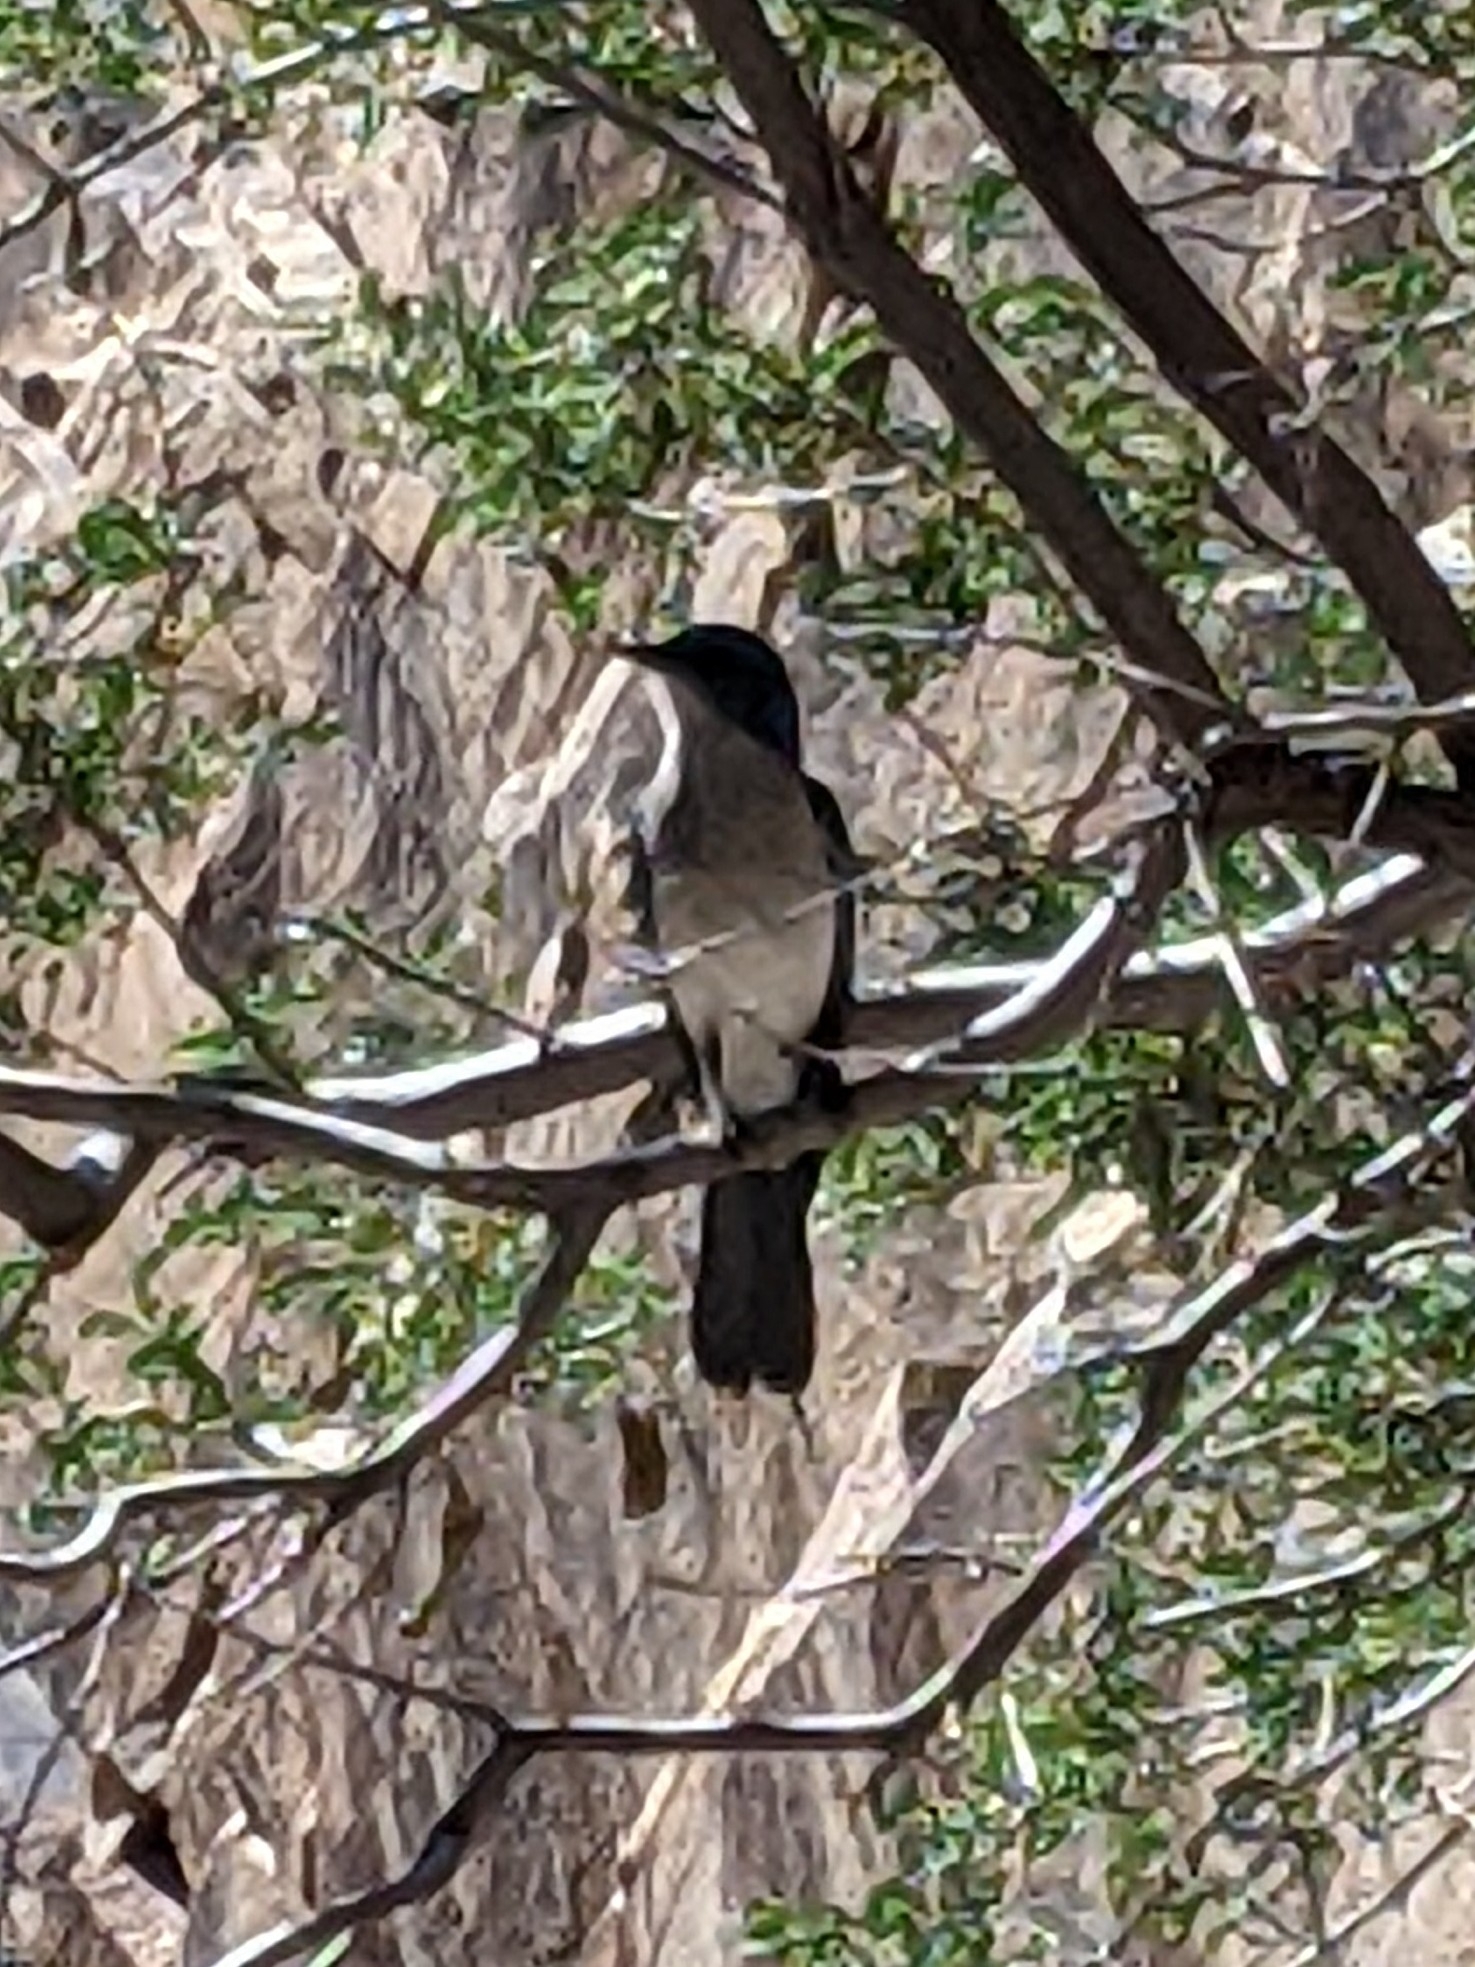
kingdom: Animalia
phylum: Chordata
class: Aves
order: Passeriformes
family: Corvidae
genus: Aphelocoma
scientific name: Aphelocoma wollweberi
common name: Mexican jay
